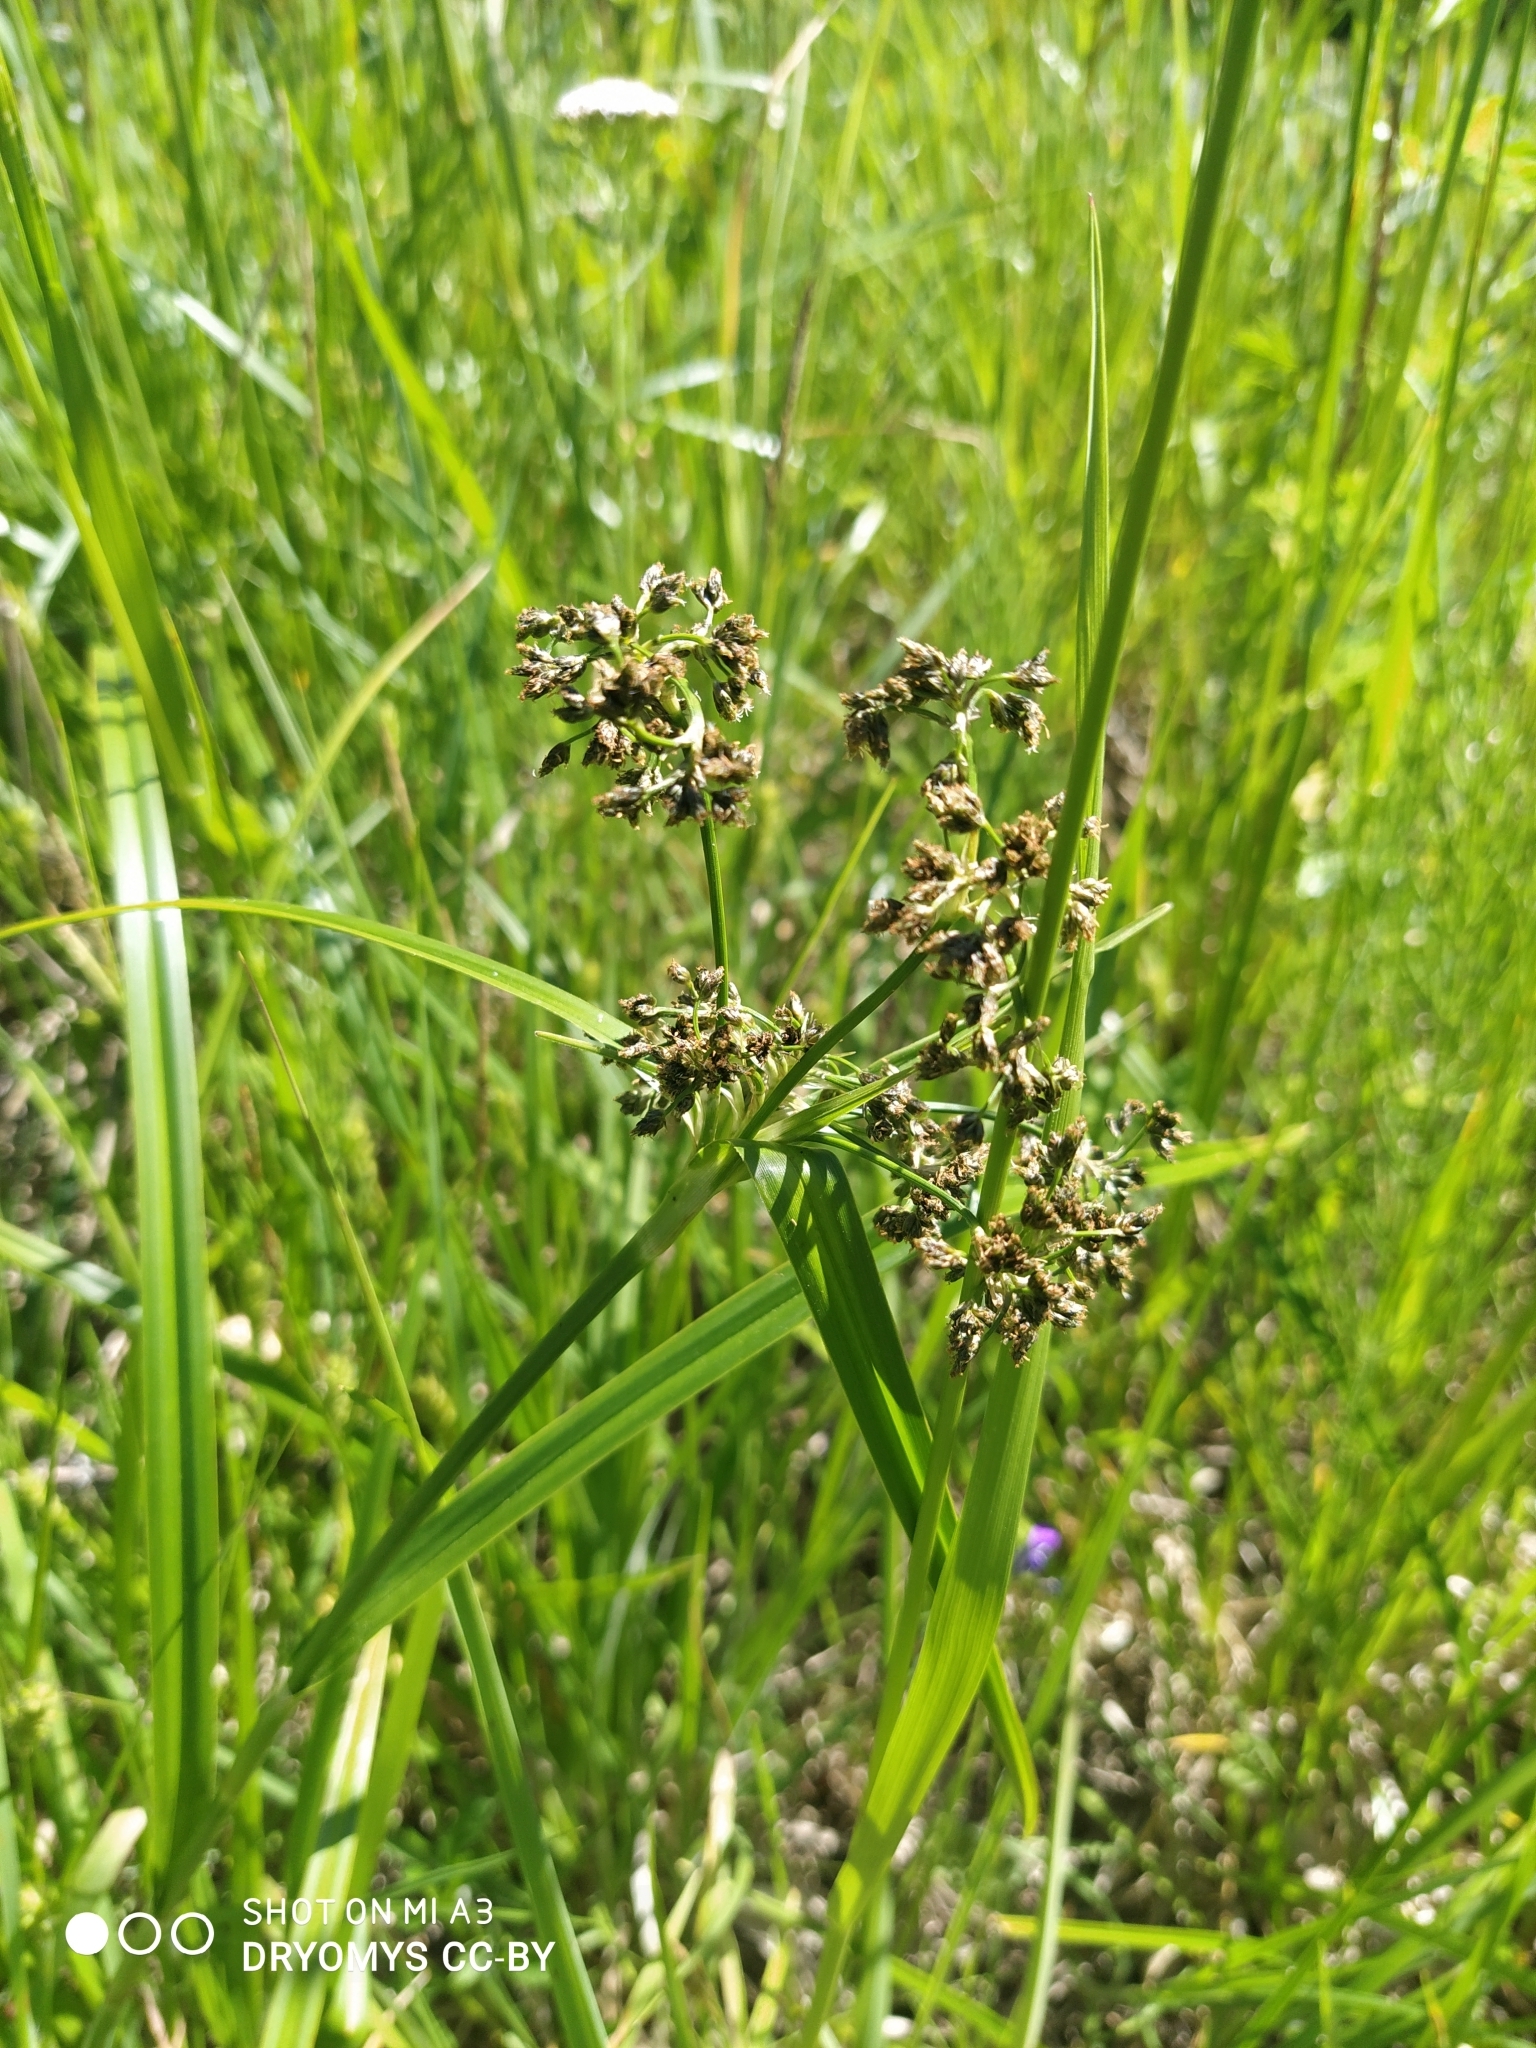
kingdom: Plantae
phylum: Tracheophyta
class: Liliopsida
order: Poales
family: Cyperaceae
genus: Scirpus
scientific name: Scirpus sylvaticus
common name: Wood club-rush
